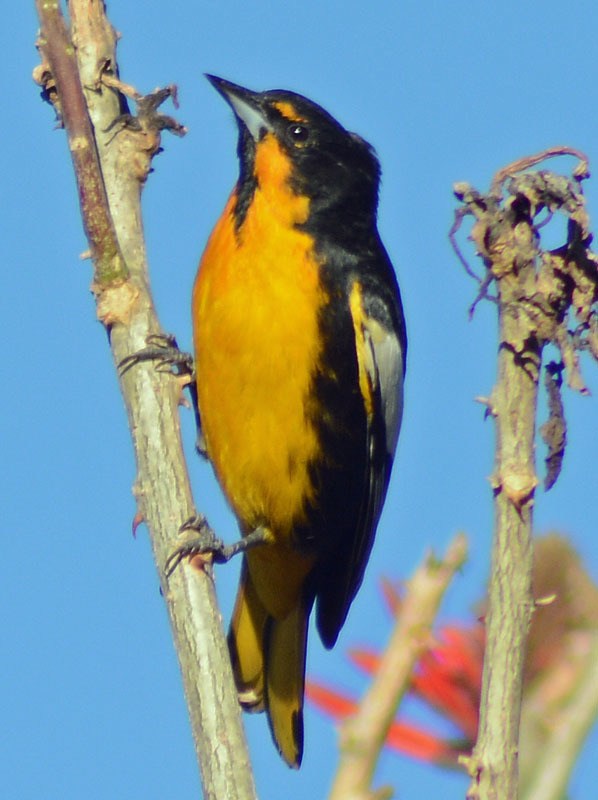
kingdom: Animalia
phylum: Chordata
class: Aves
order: Passeriformes
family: Icteridae
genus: Icterus
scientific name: Icterus abeillei
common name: Black-backed oriole
